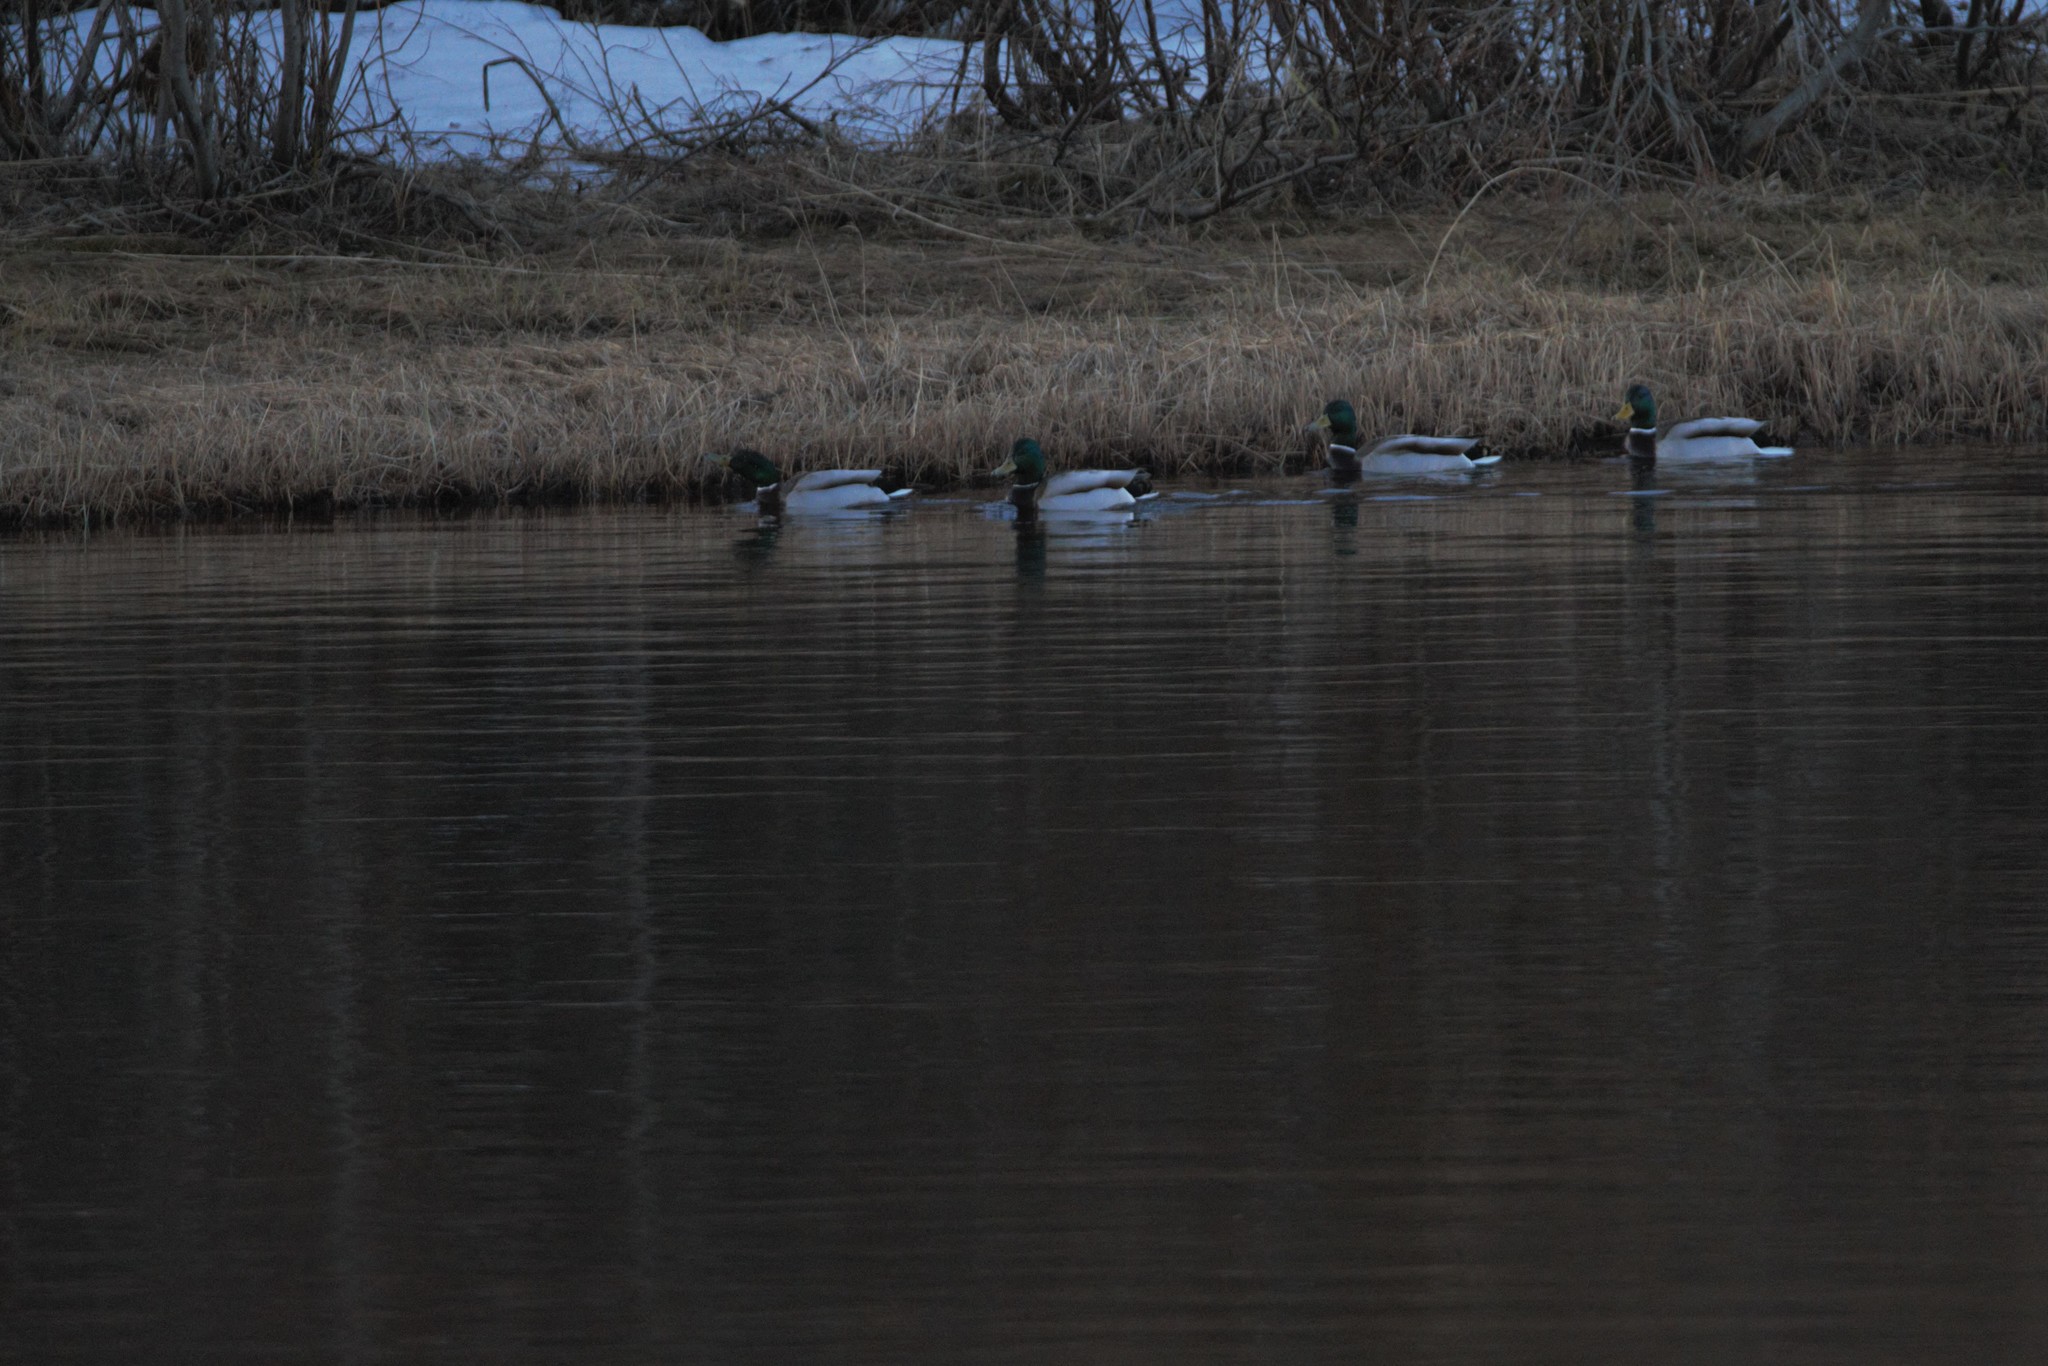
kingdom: Animalia
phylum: Chordata
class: Aves
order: Anseriformes
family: Anatidae
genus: Anas
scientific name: Anas platyrhynchos
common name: Mallard
